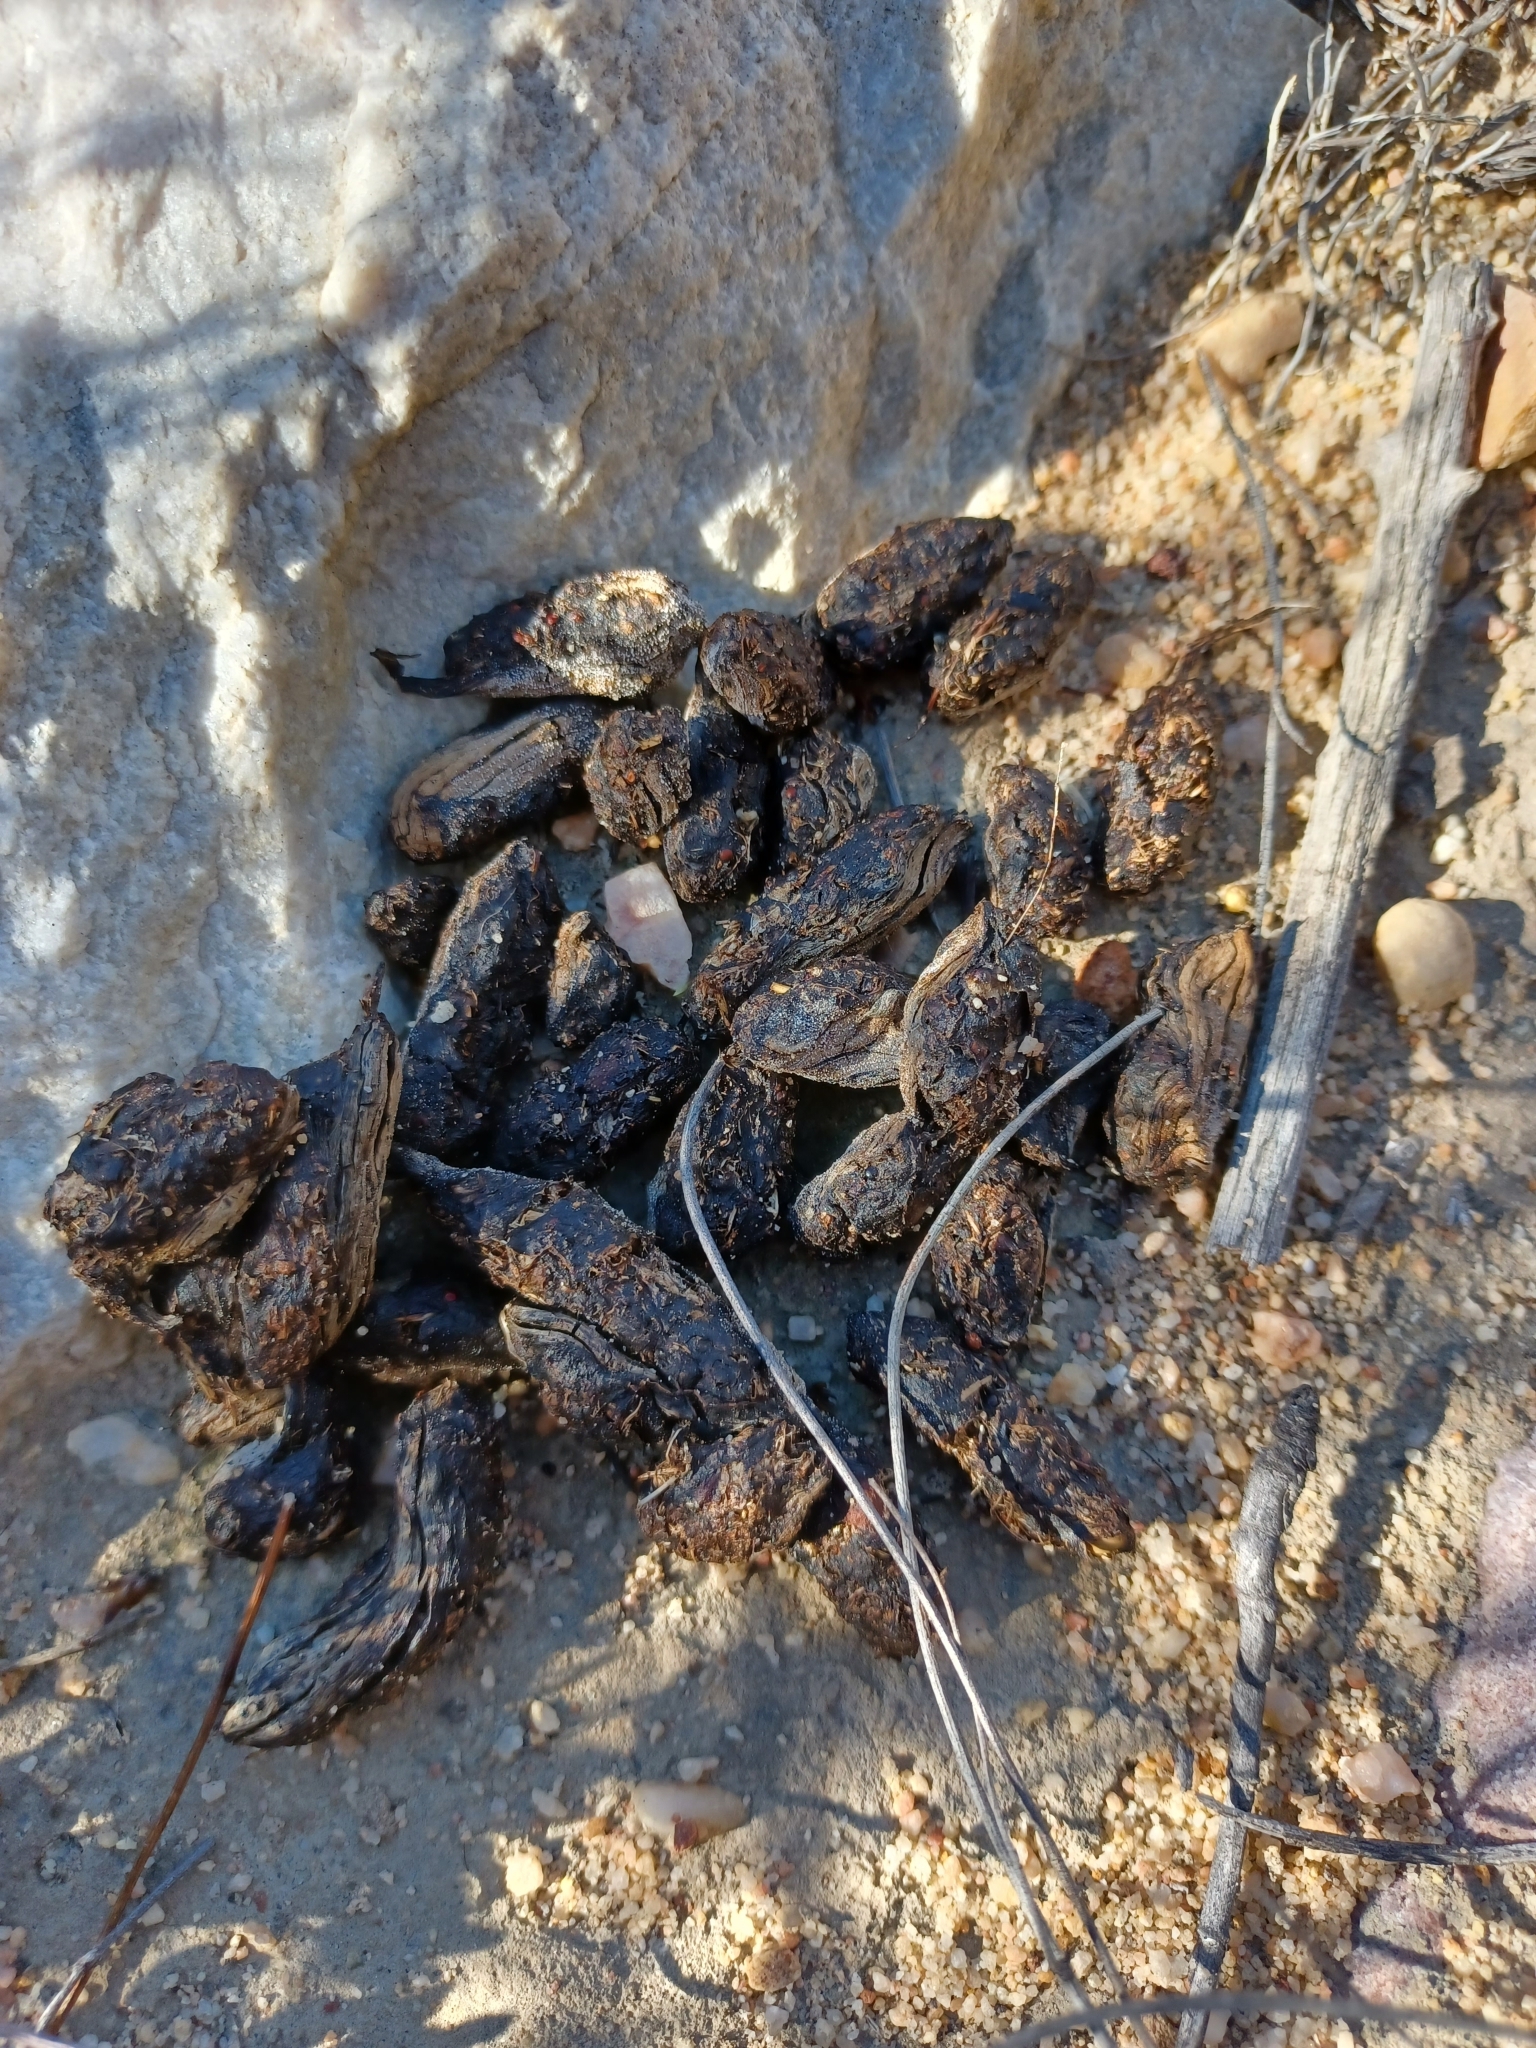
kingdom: Animalia
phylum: Chordata
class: Mammalia
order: Rodentia
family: Hystricidae
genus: Hystrix
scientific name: Hystrix africaeaustralis
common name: Cape porcupine
